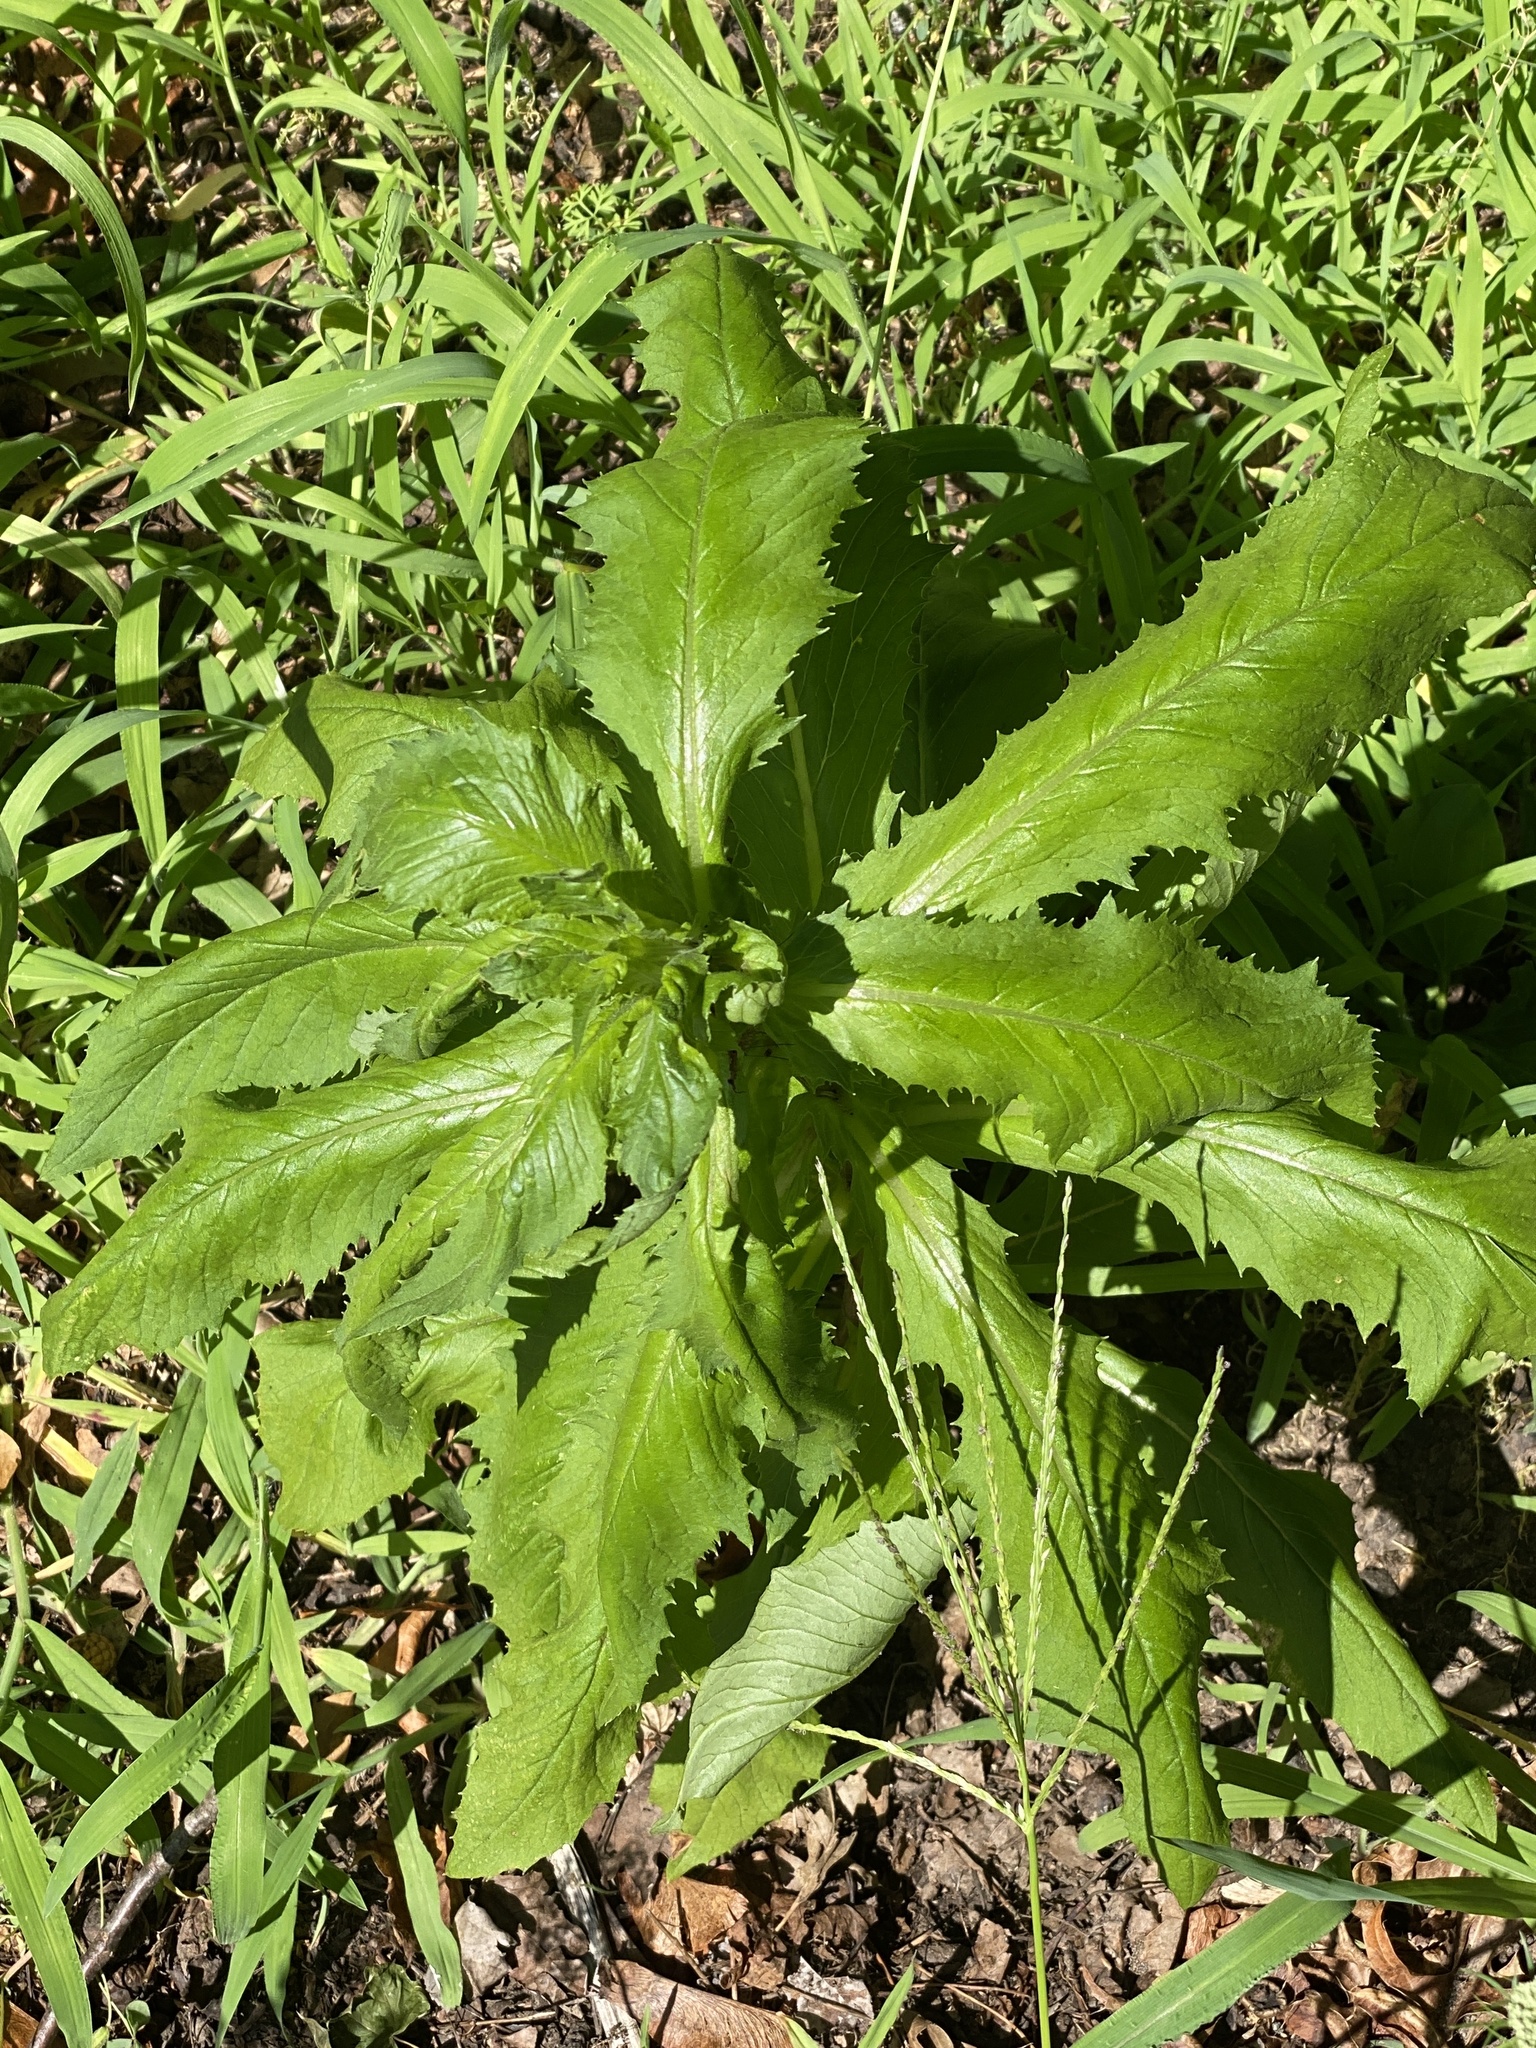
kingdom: Plantae
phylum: Tracheophyta
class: Magnoliopsida
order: Asterales
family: Asteraceae
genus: Erechtites
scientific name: Erechtites hieraciifolius
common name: American burnweed
